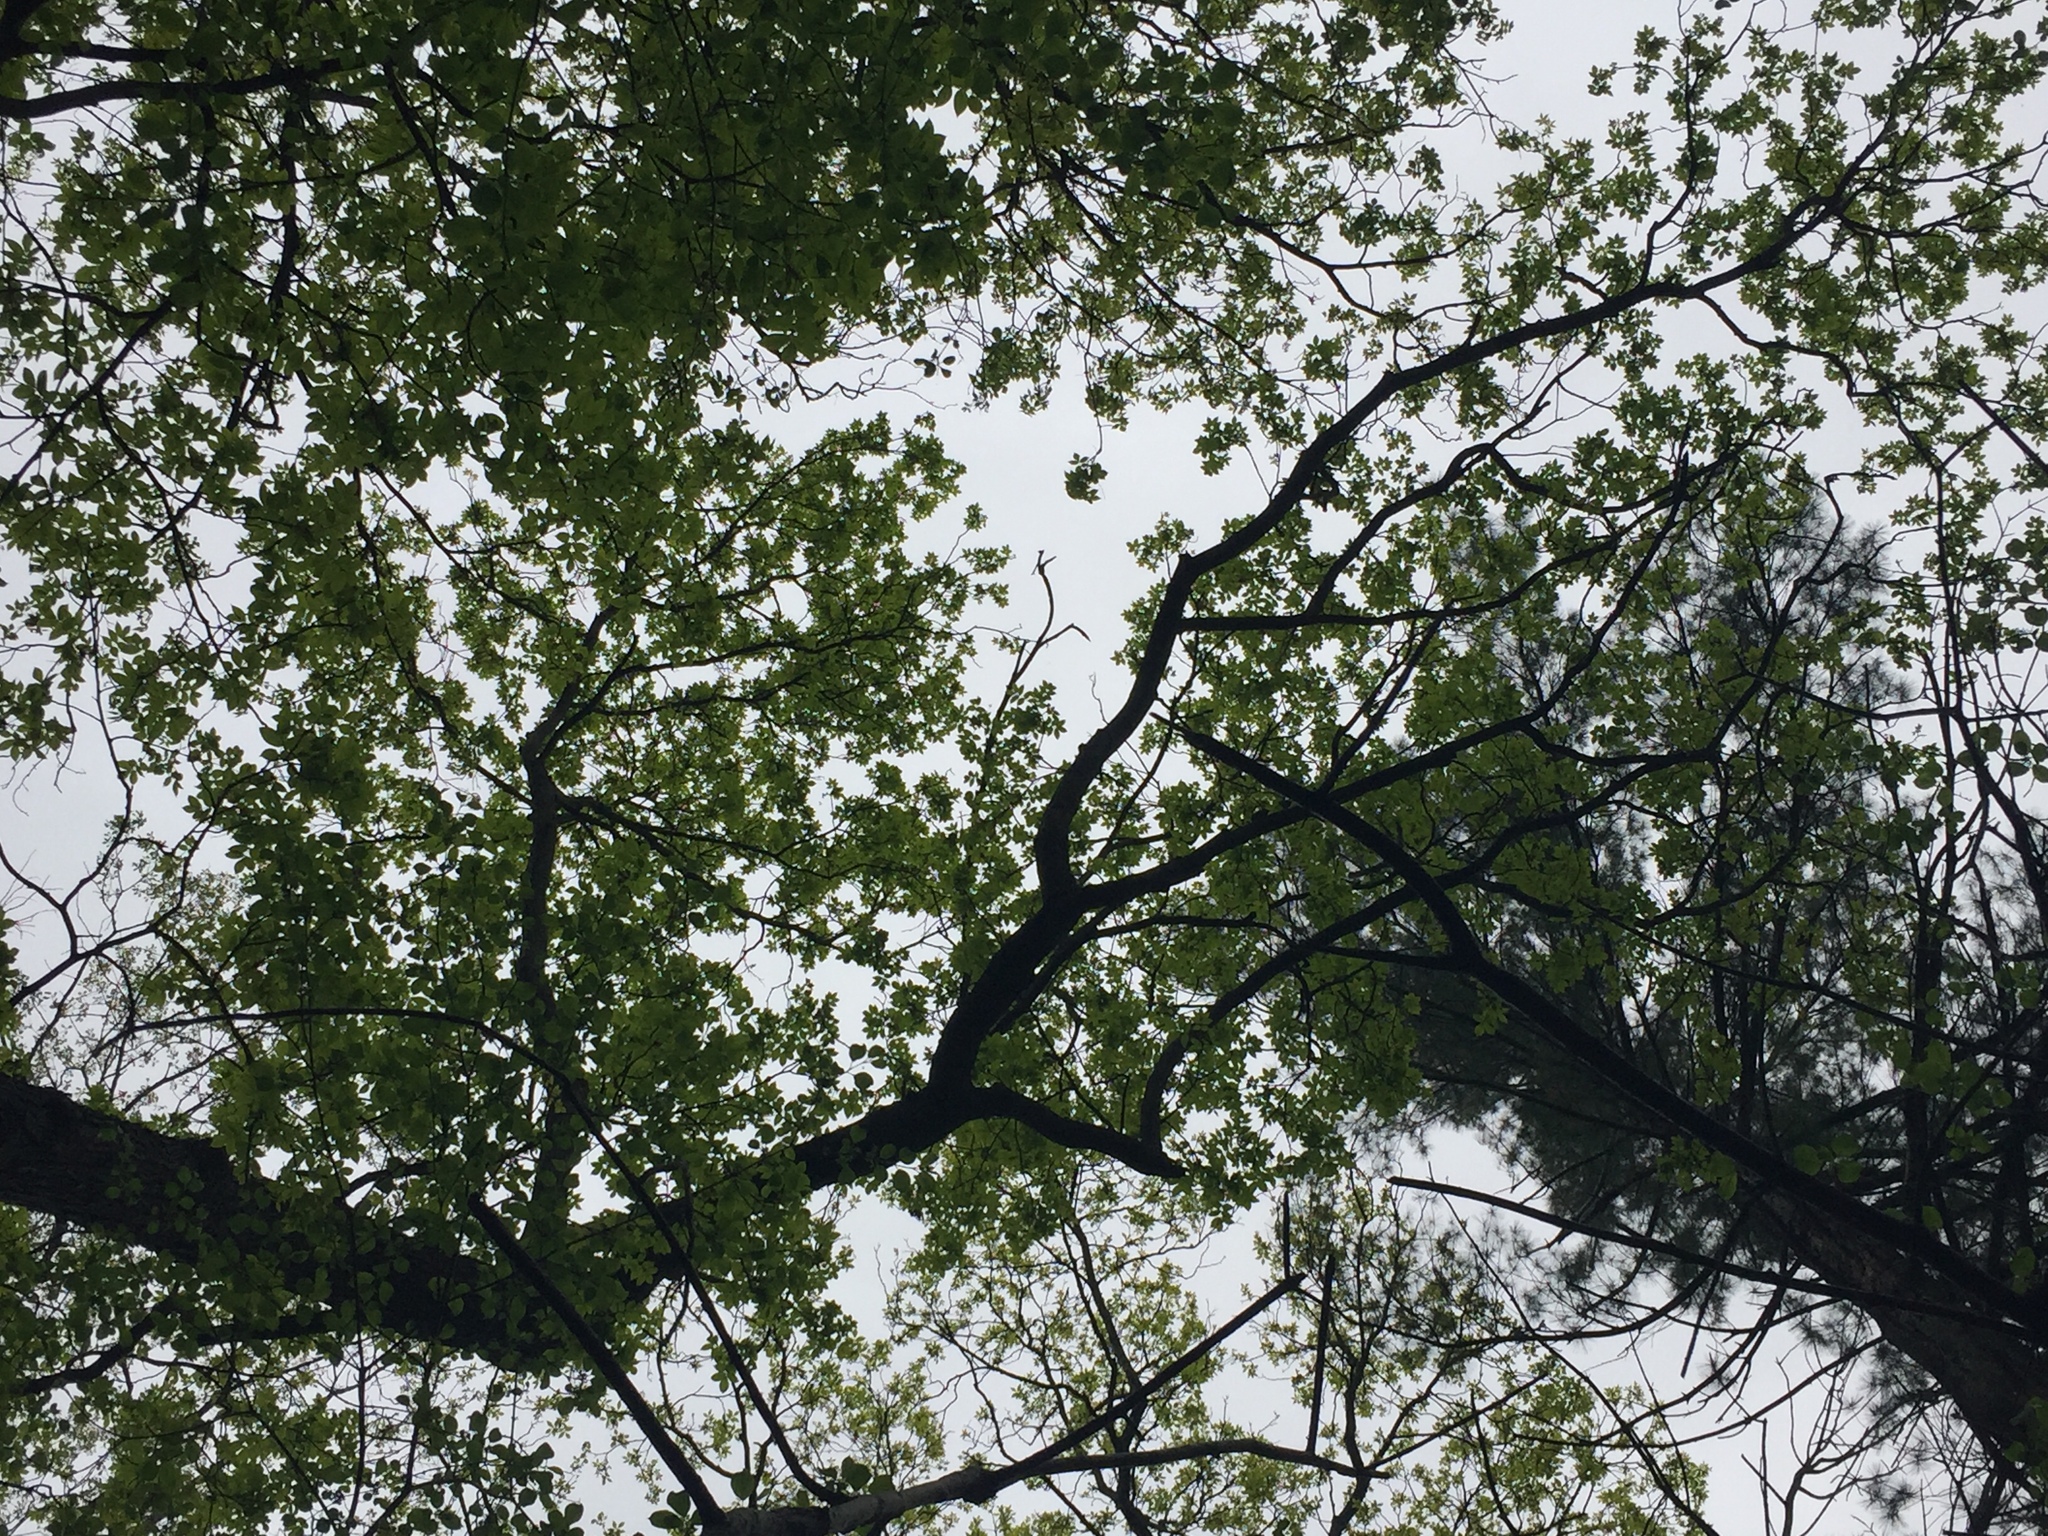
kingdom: Plantae
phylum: Tracheophyta
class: Magnoliopsida
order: Fagales
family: Juglandaceae
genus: Carya
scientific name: Carya glabra
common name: Pignut hickory
